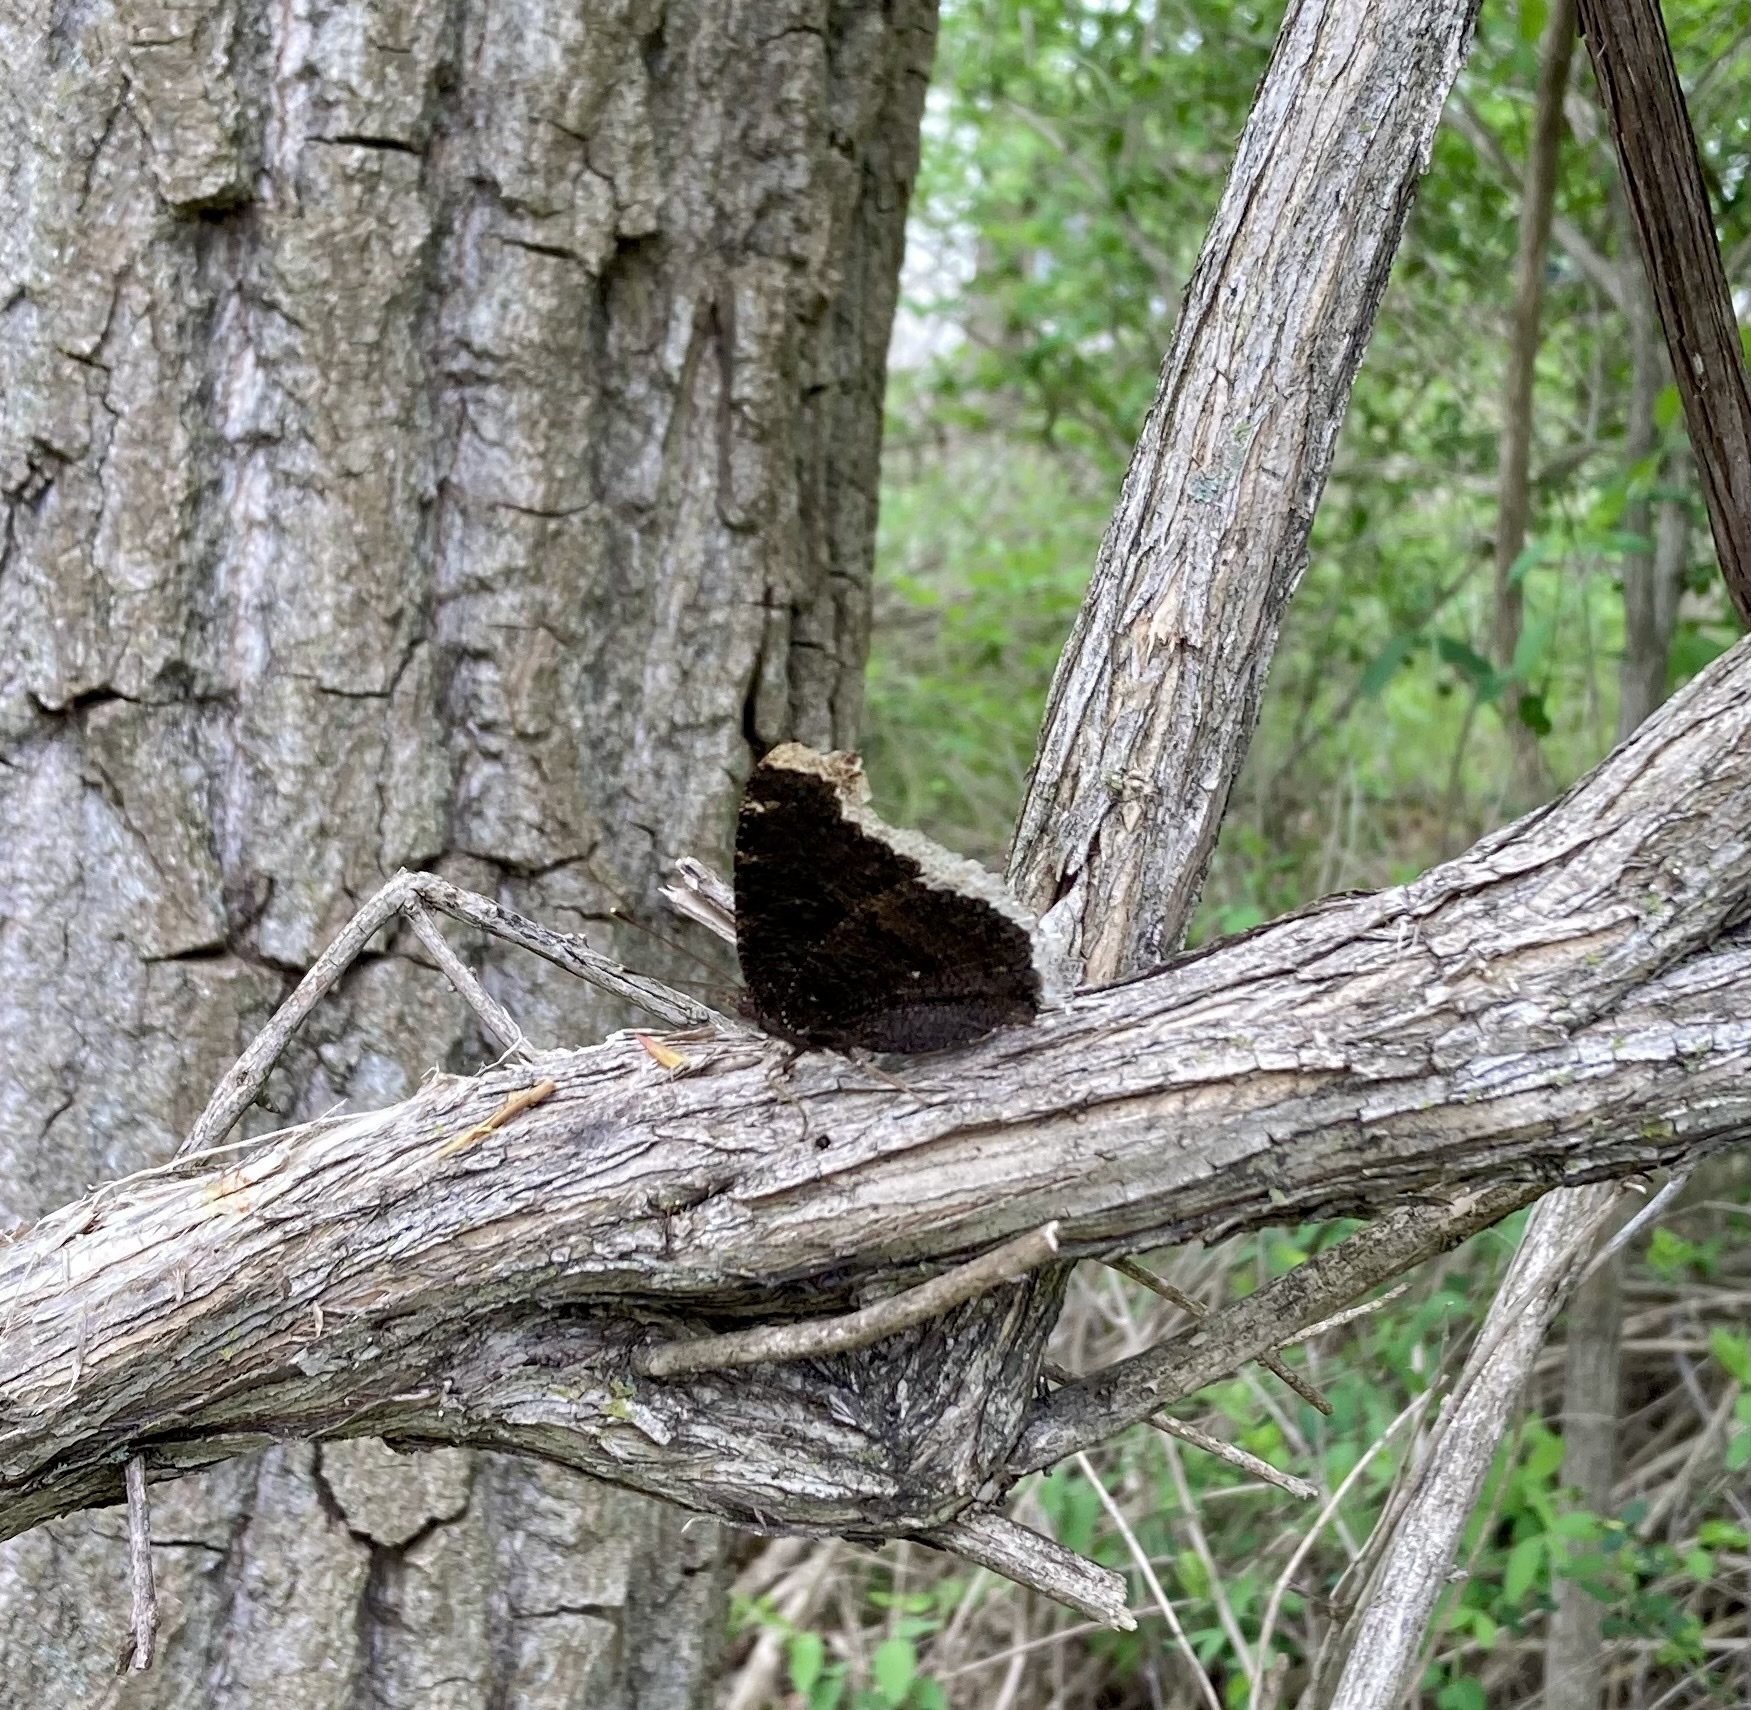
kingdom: Animalia
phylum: Arthropoda
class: Insecta
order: Lepidoptera
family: Nymphalidae
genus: Nymphalis
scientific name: Nymphalis antiopa
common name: Camberwell beauty
